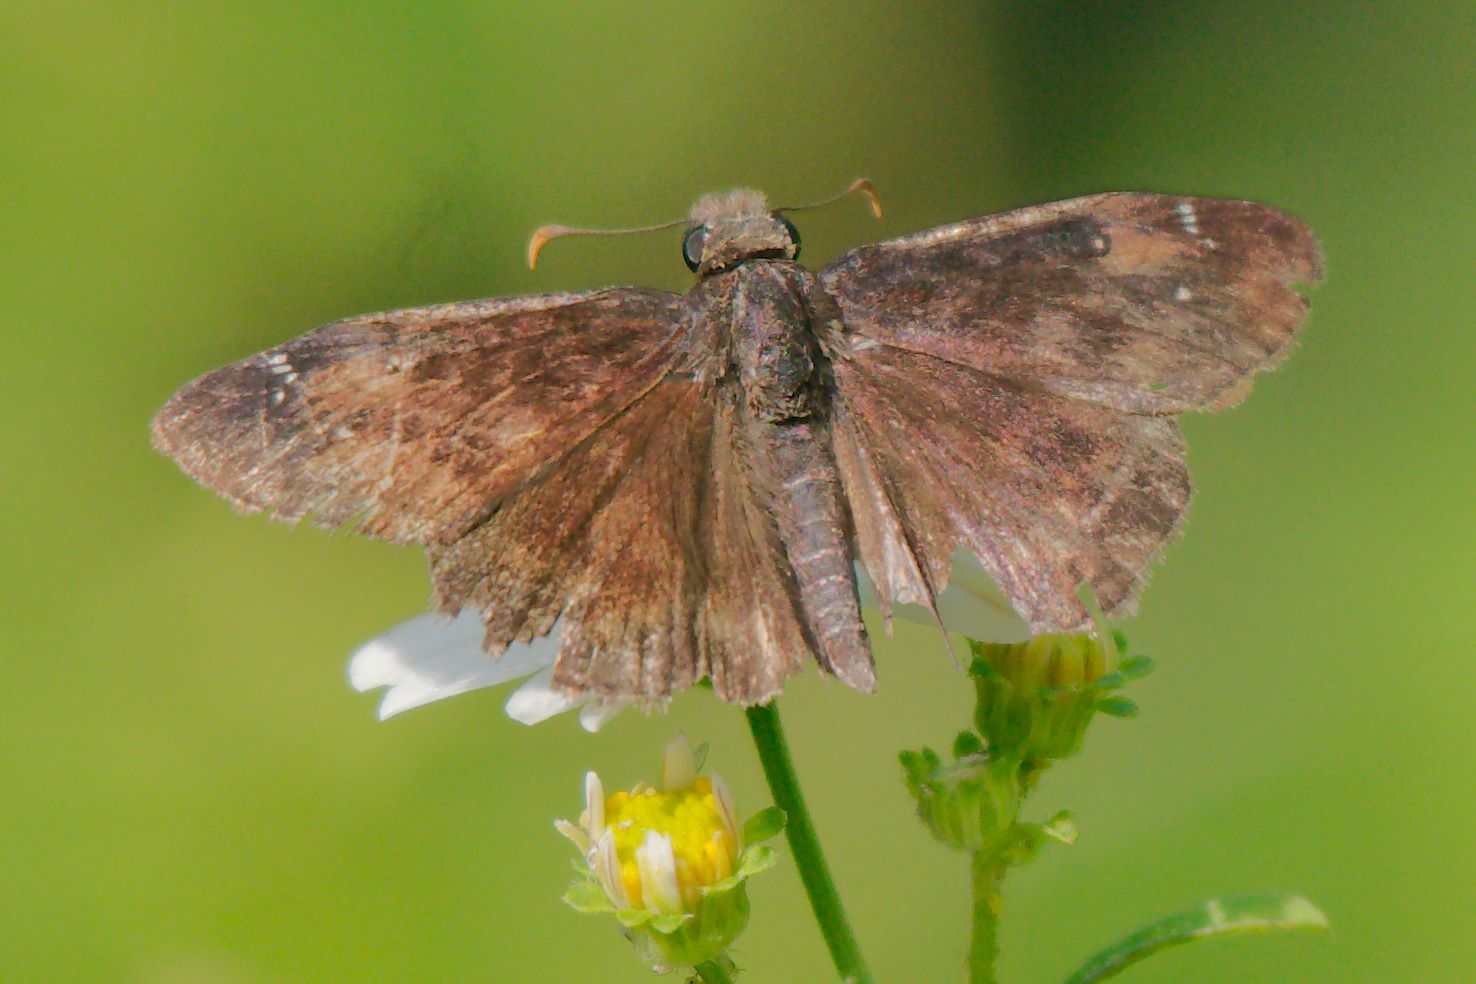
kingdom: Animalia
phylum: Arthropoda
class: Insecta
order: Lepidoptera
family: Hesperiidae
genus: Erynnis
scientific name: Erynnis zarucco
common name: Zarucco duskywing
